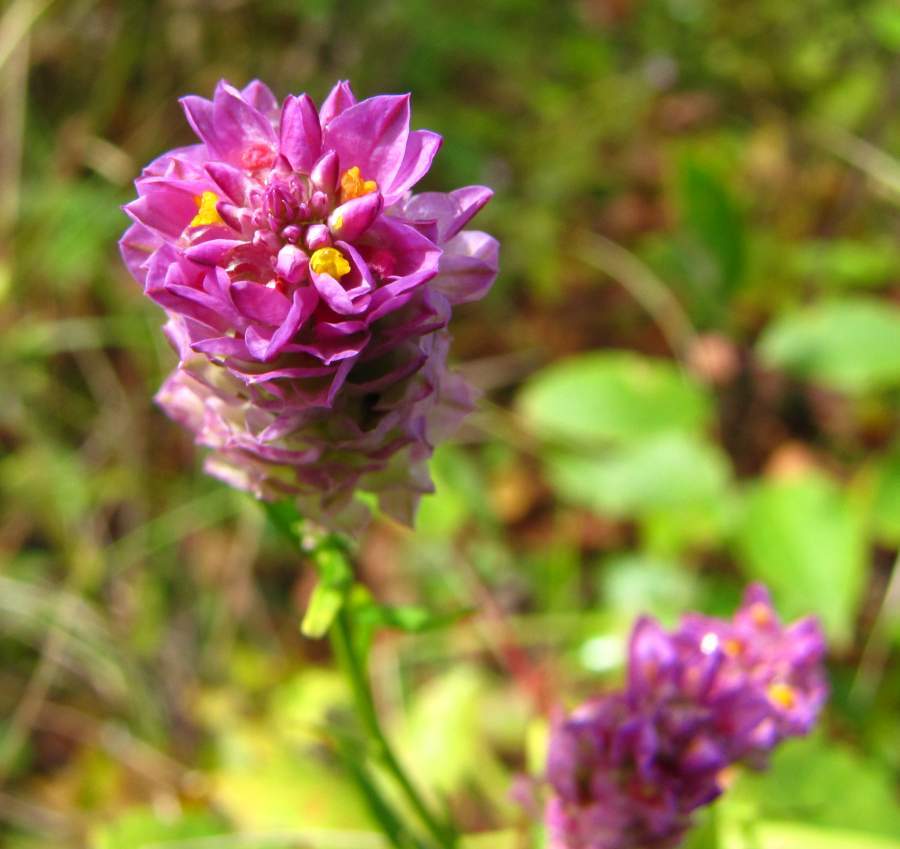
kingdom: Plantae
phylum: Tracheophyta
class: Magnoliopsida
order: Fabales
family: Polygalaceae
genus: Polygala
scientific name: Polygala sanguinea
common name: Blood milkwort
